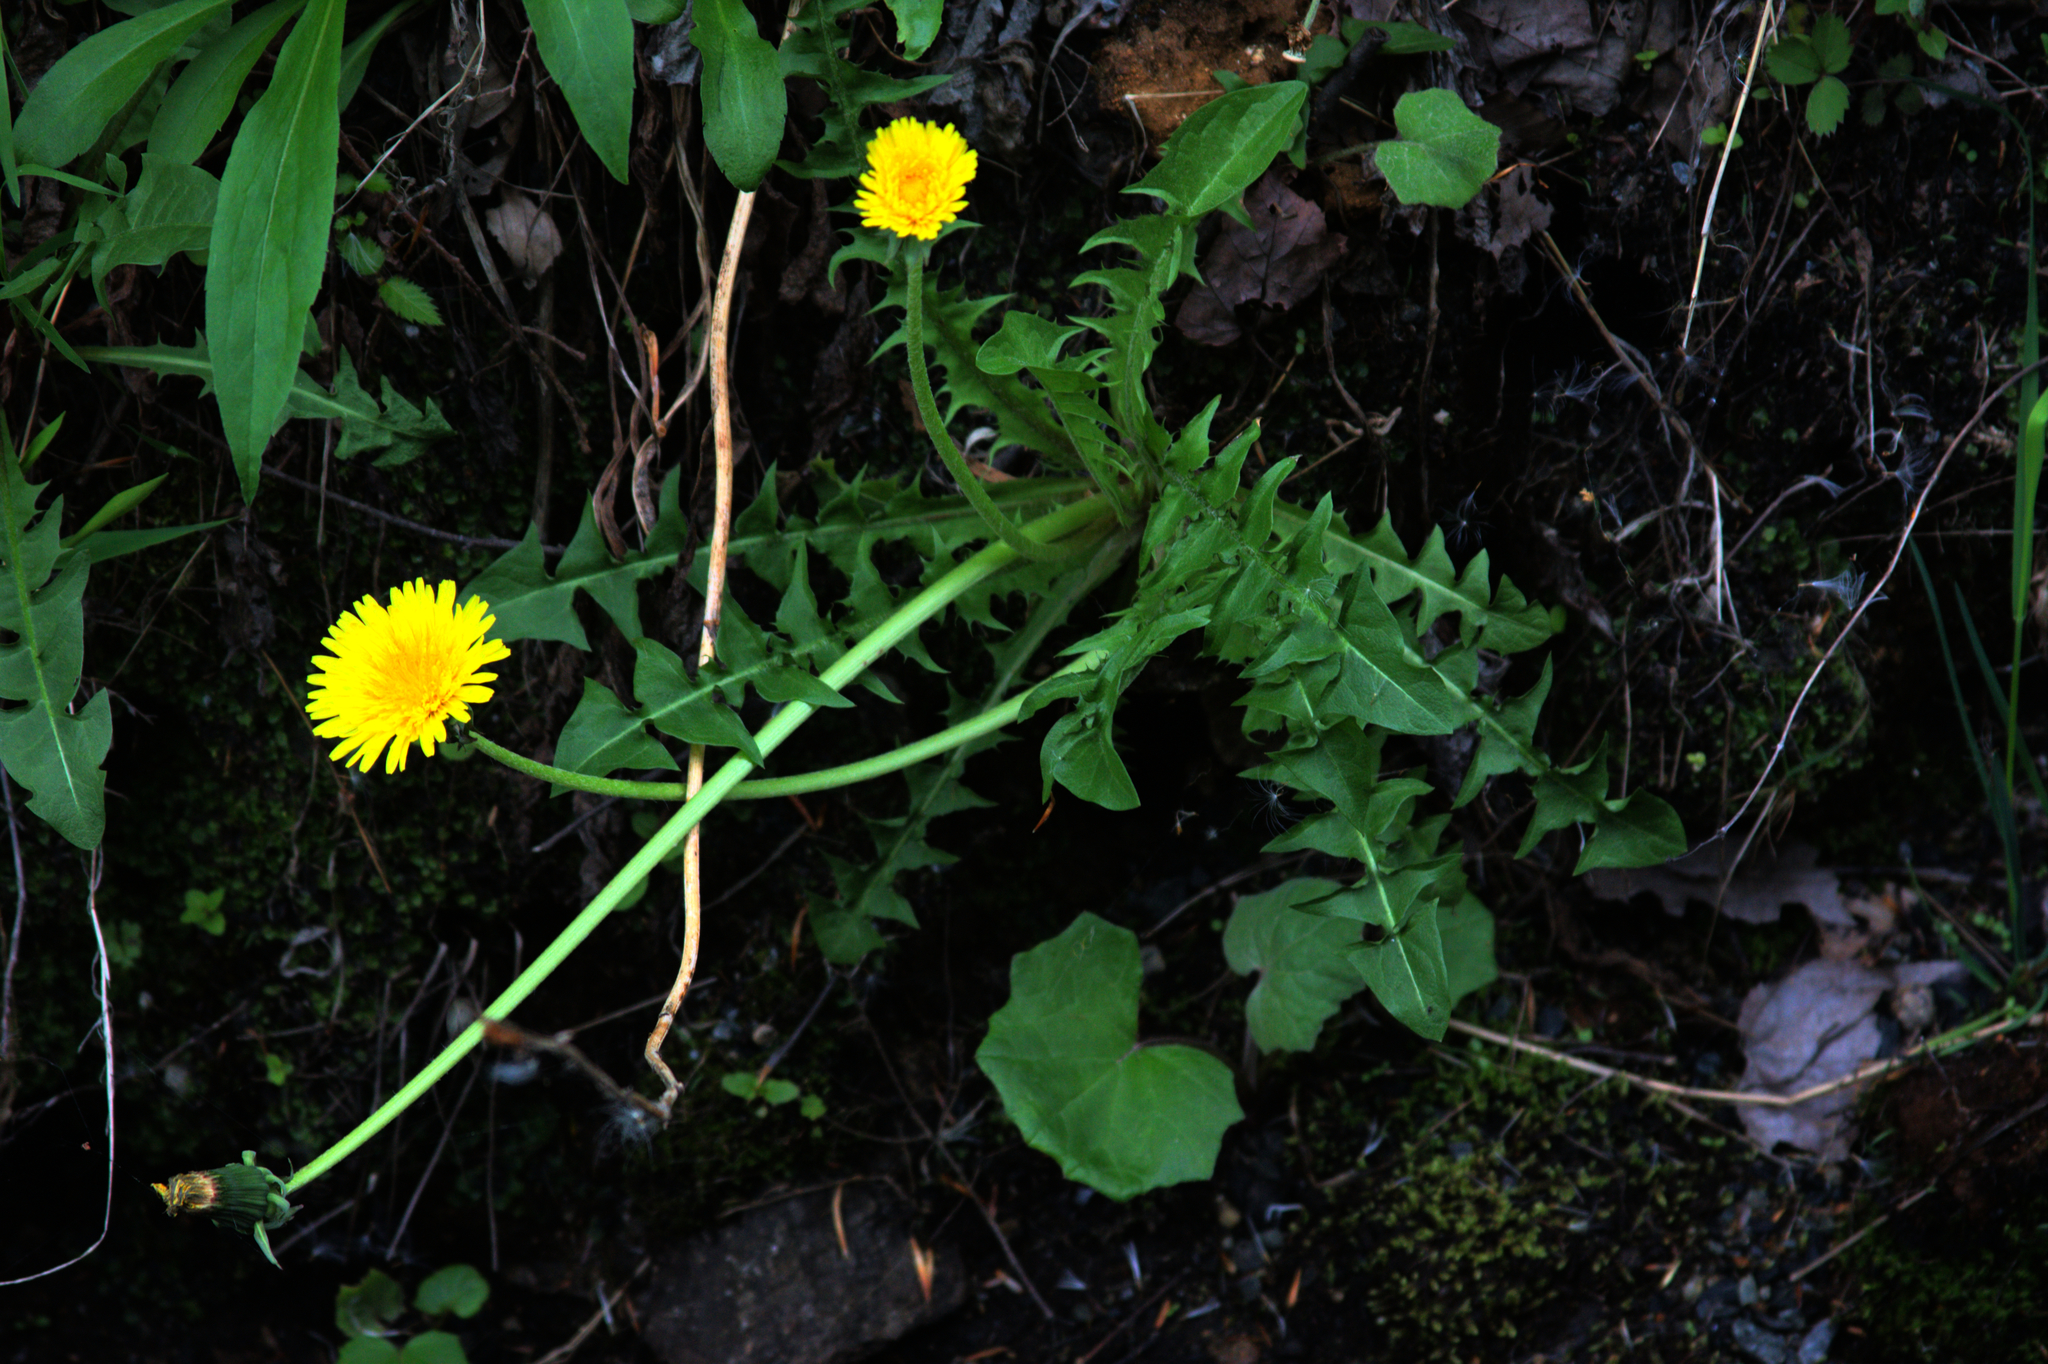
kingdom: Plantae
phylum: Tracheophyta
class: Magnoliopsida
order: Asterales
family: Asteraceae
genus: Tussilago
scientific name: Tussilago farfara
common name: Coltsfoot
